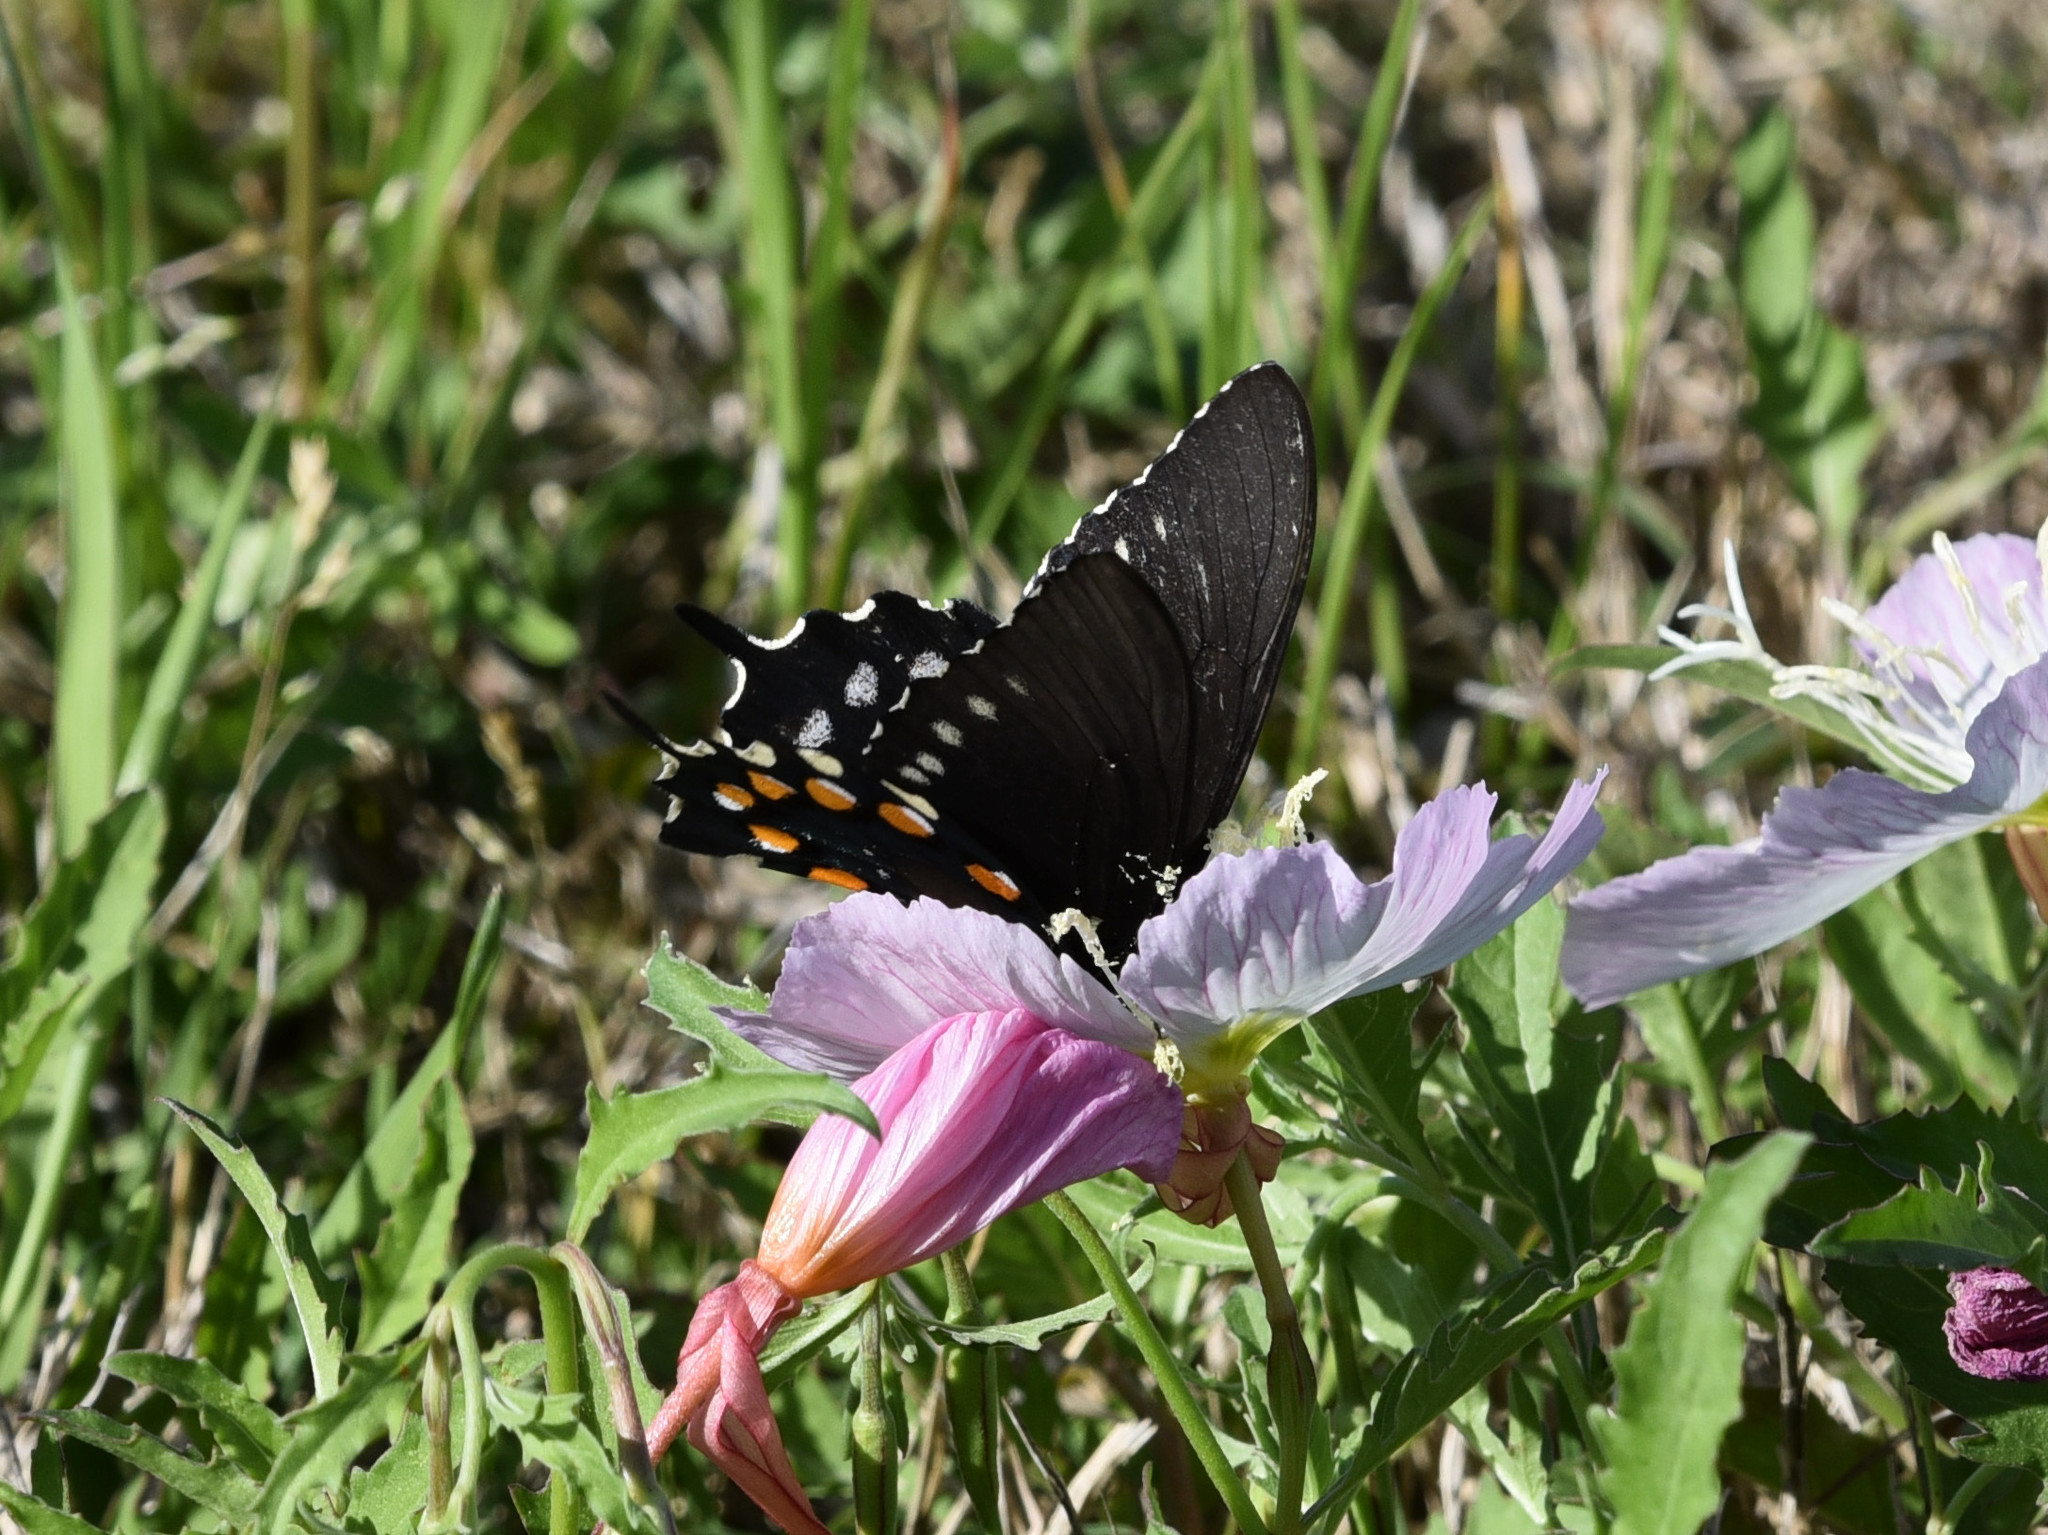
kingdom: Animalia
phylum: Arthropoda
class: Insecta
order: Lepidoptera
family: Papilionidae
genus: Battus
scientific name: Battus philenor
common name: Pipevine swallowtail
